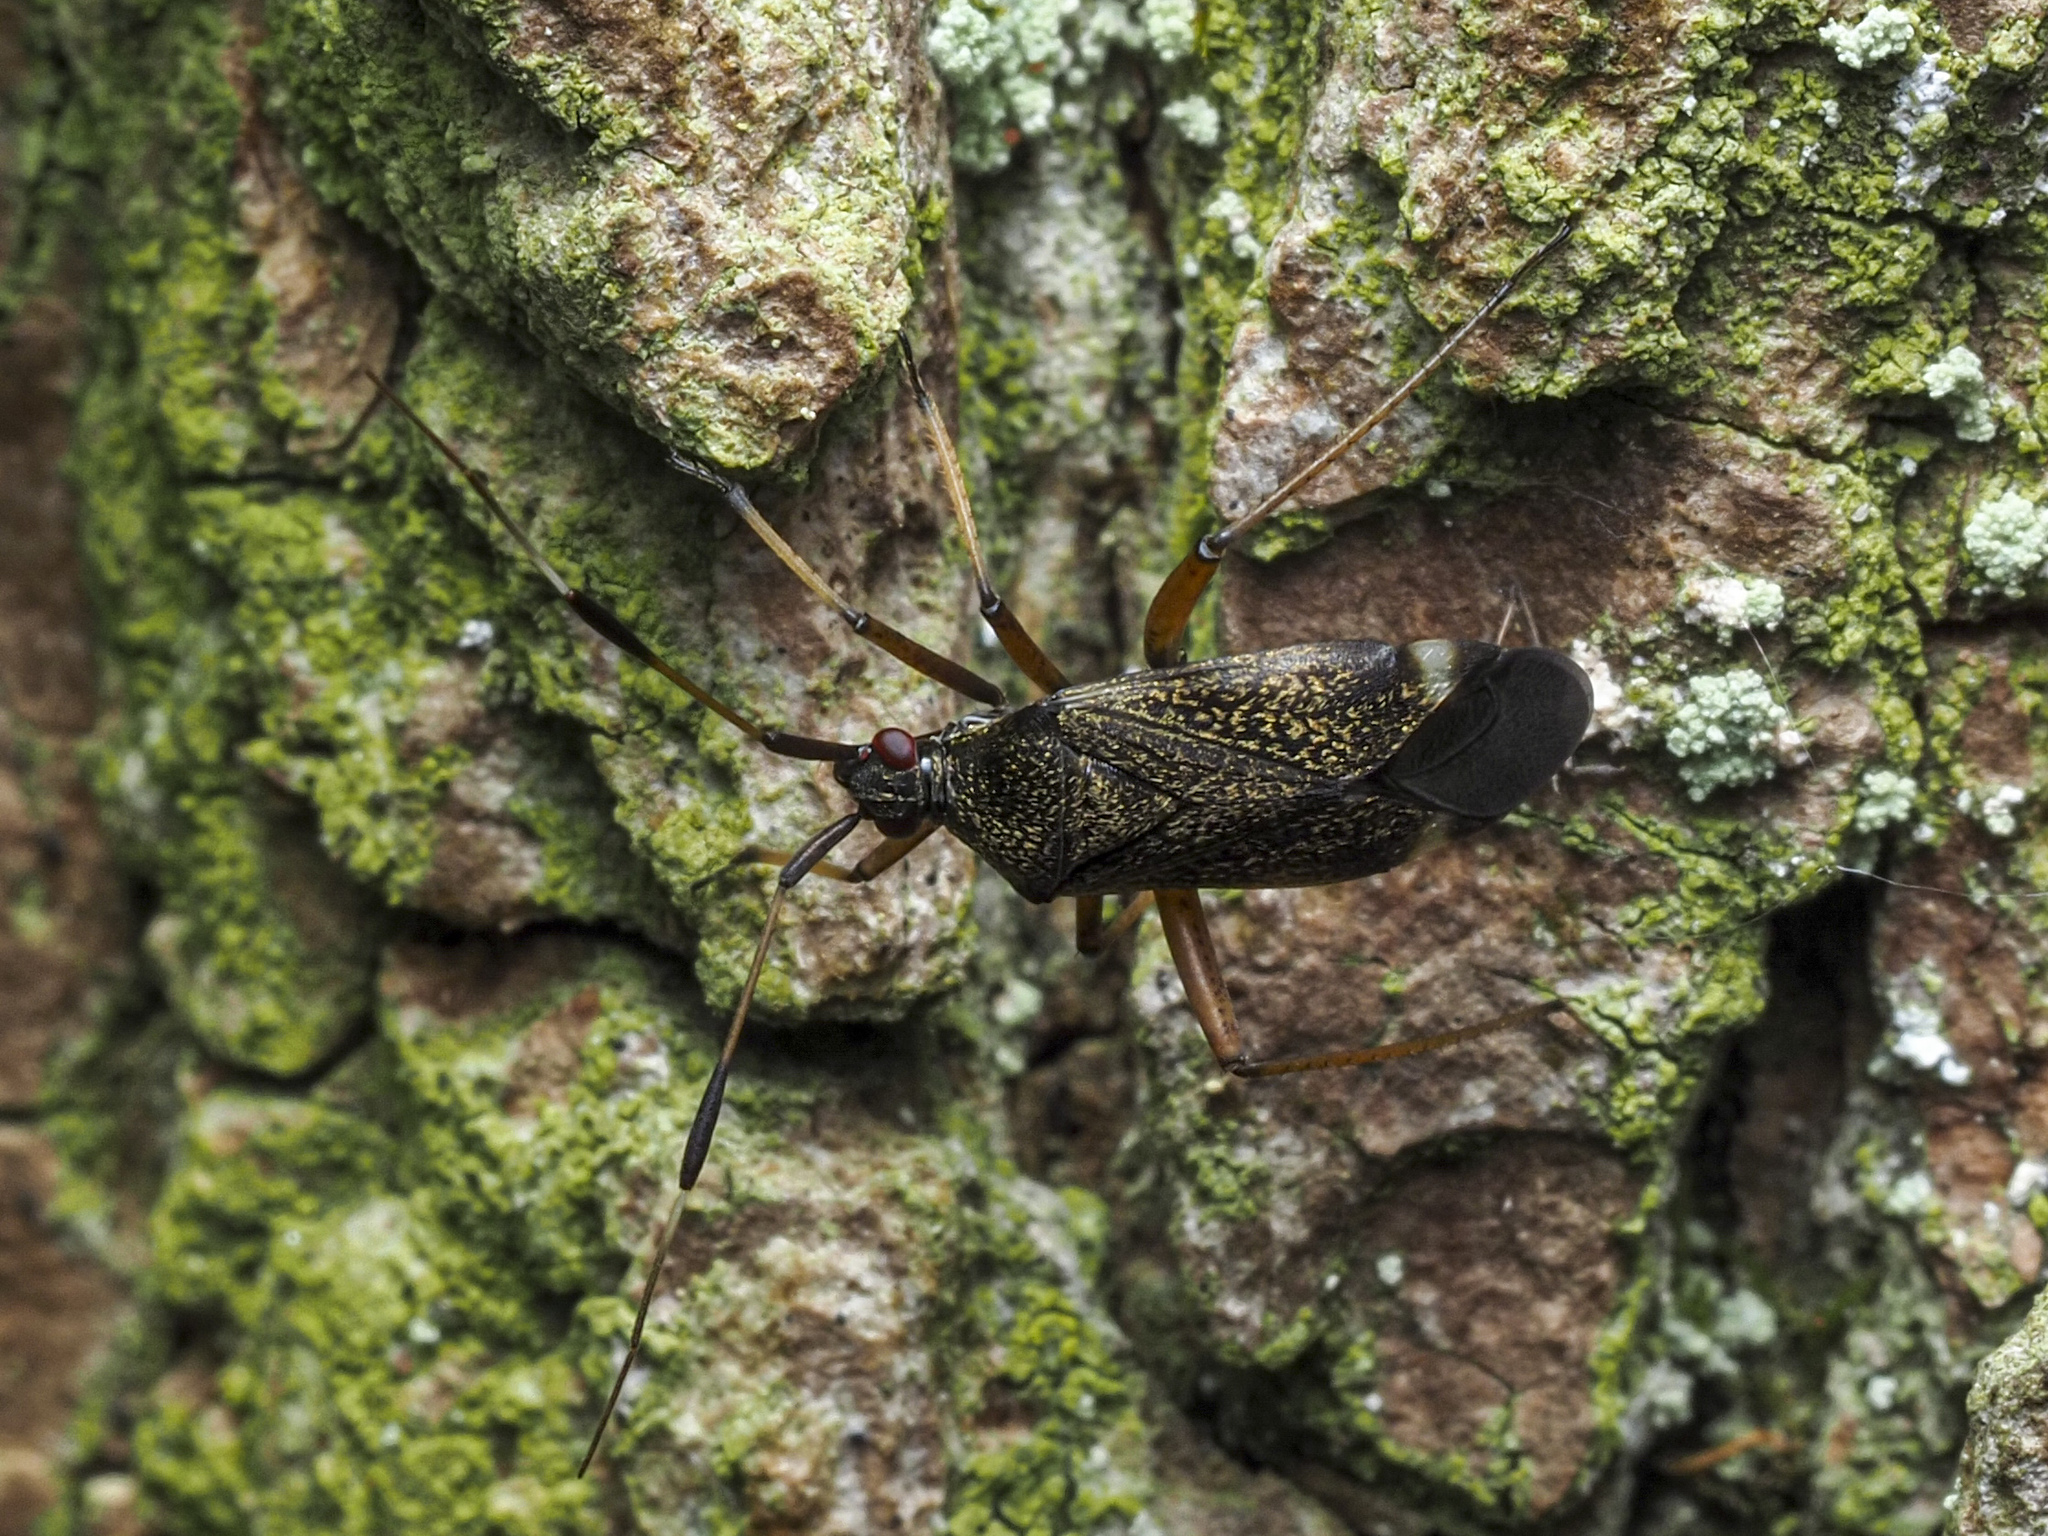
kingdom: Animalia
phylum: Arthropoda
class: Insecta
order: Hemiptera
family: Miridae
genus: Closterotomus
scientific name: Closterotomus biclavatus
